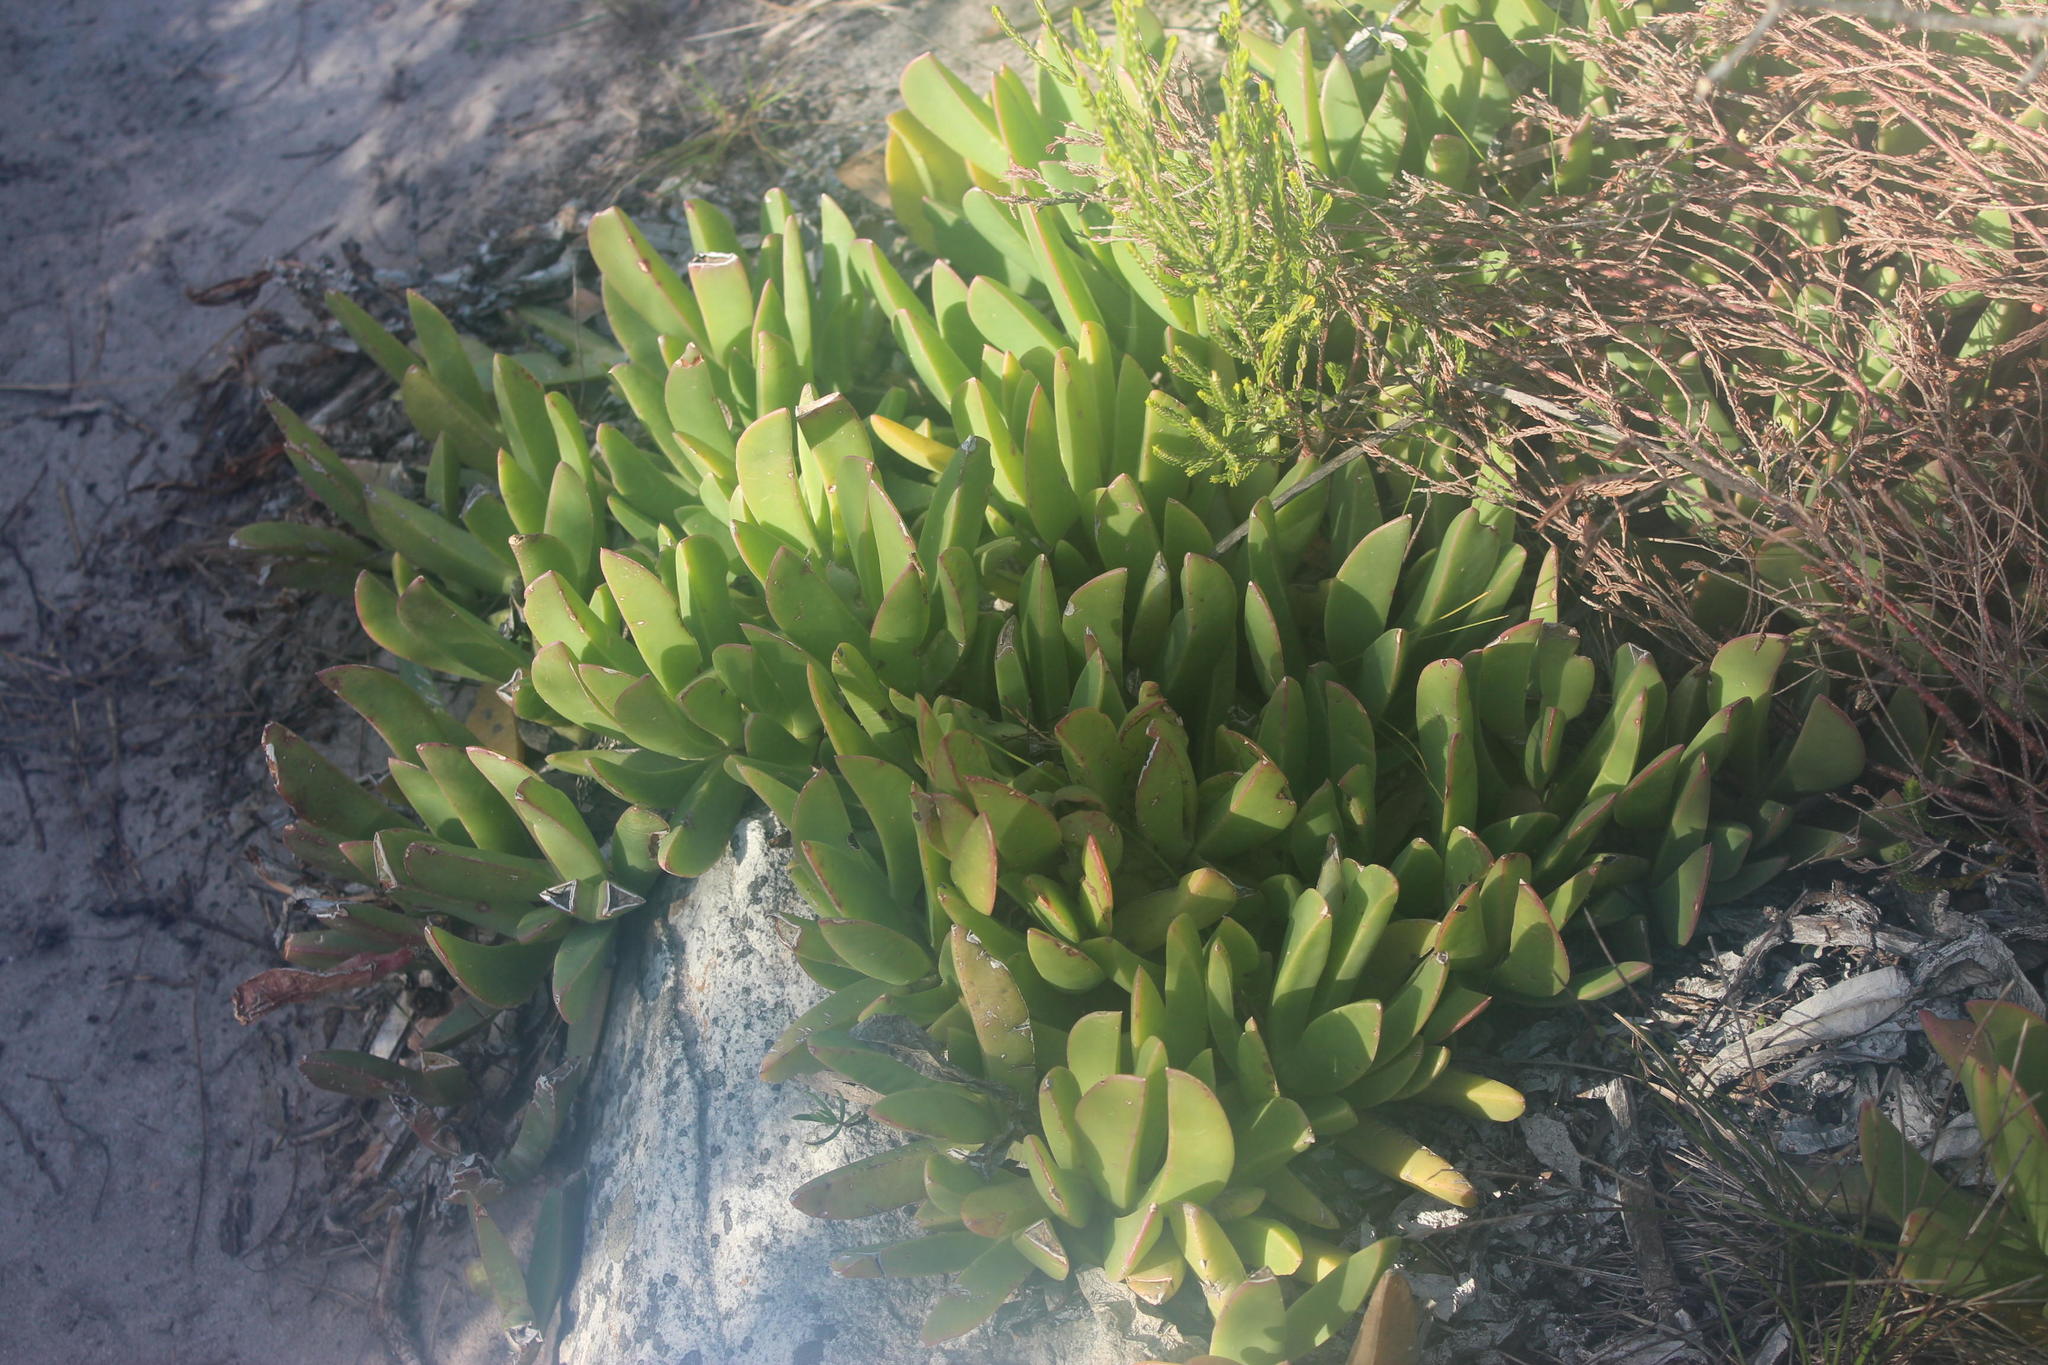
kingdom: Plantae
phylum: Tracheophyta
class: Magnoliopsida
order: Caryophyllales
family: Aizoaceae
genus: Carpobrotus
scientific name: Carpobrotus acinaciformis
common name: Sally-my-handsome
